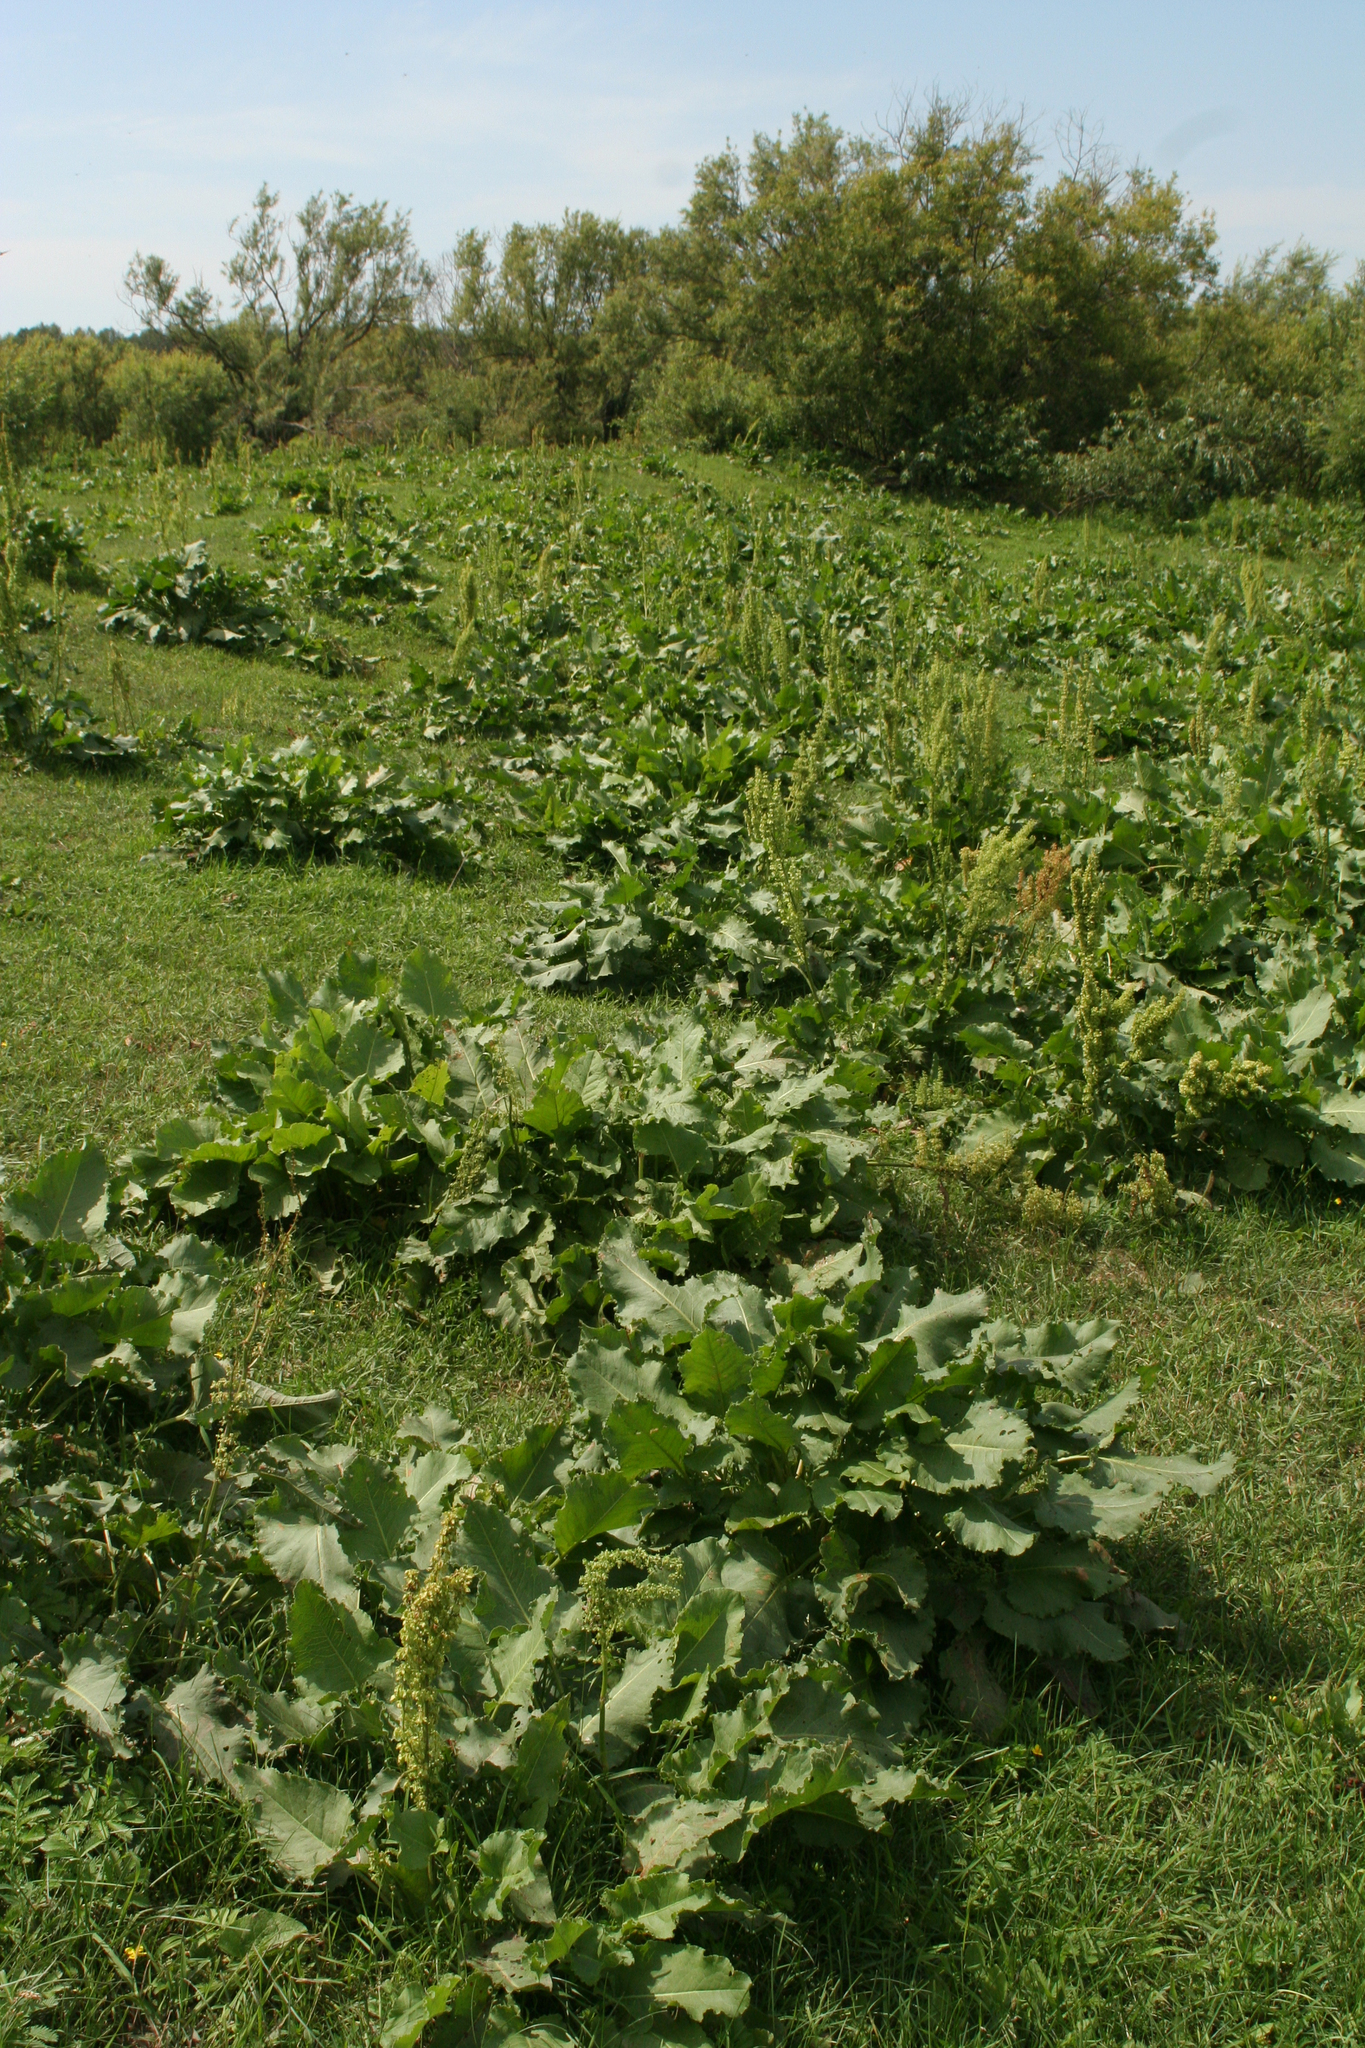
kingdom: Plantae
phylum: Tracheophyta
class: Magnoliopsida
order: Caryophyllales
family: Polygonaceae
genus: Rumex
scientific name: Rumex confertus
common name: Russian dock
